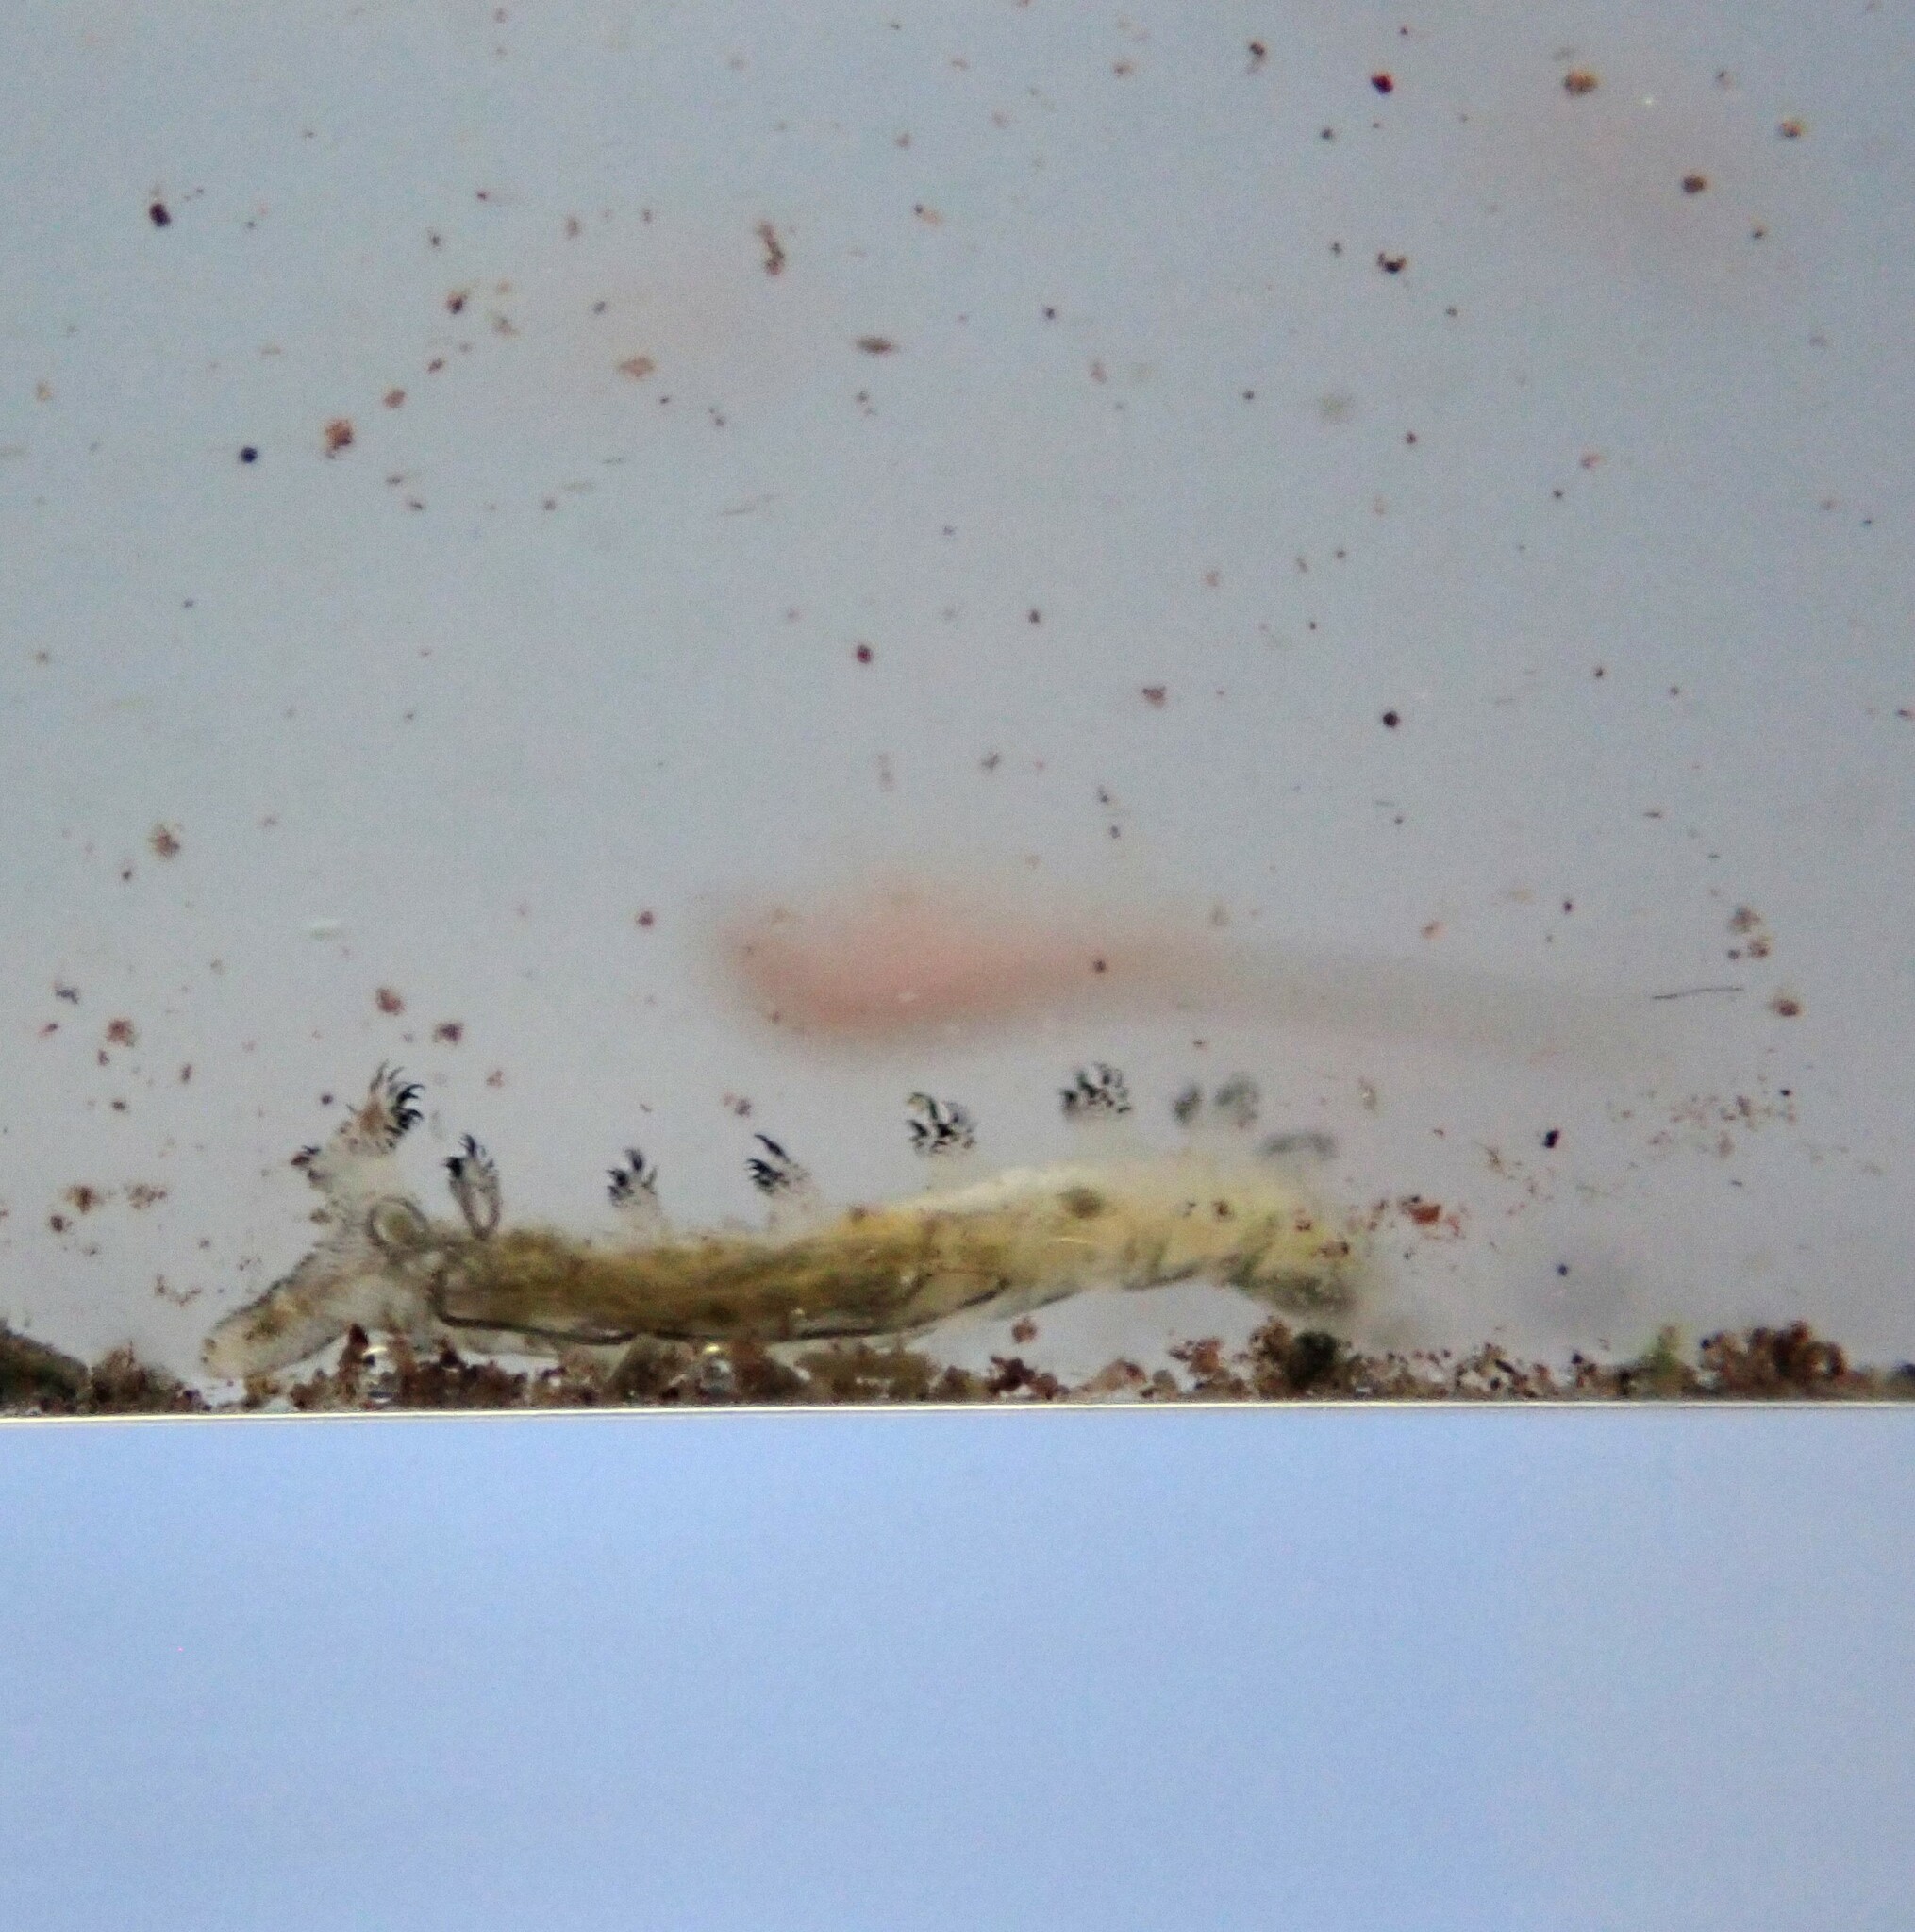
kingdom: Animalia
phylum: Arthropoda
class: Insecta
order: Diptera
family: Ephydridae
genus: Cirrula
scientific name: Cirrula hians
